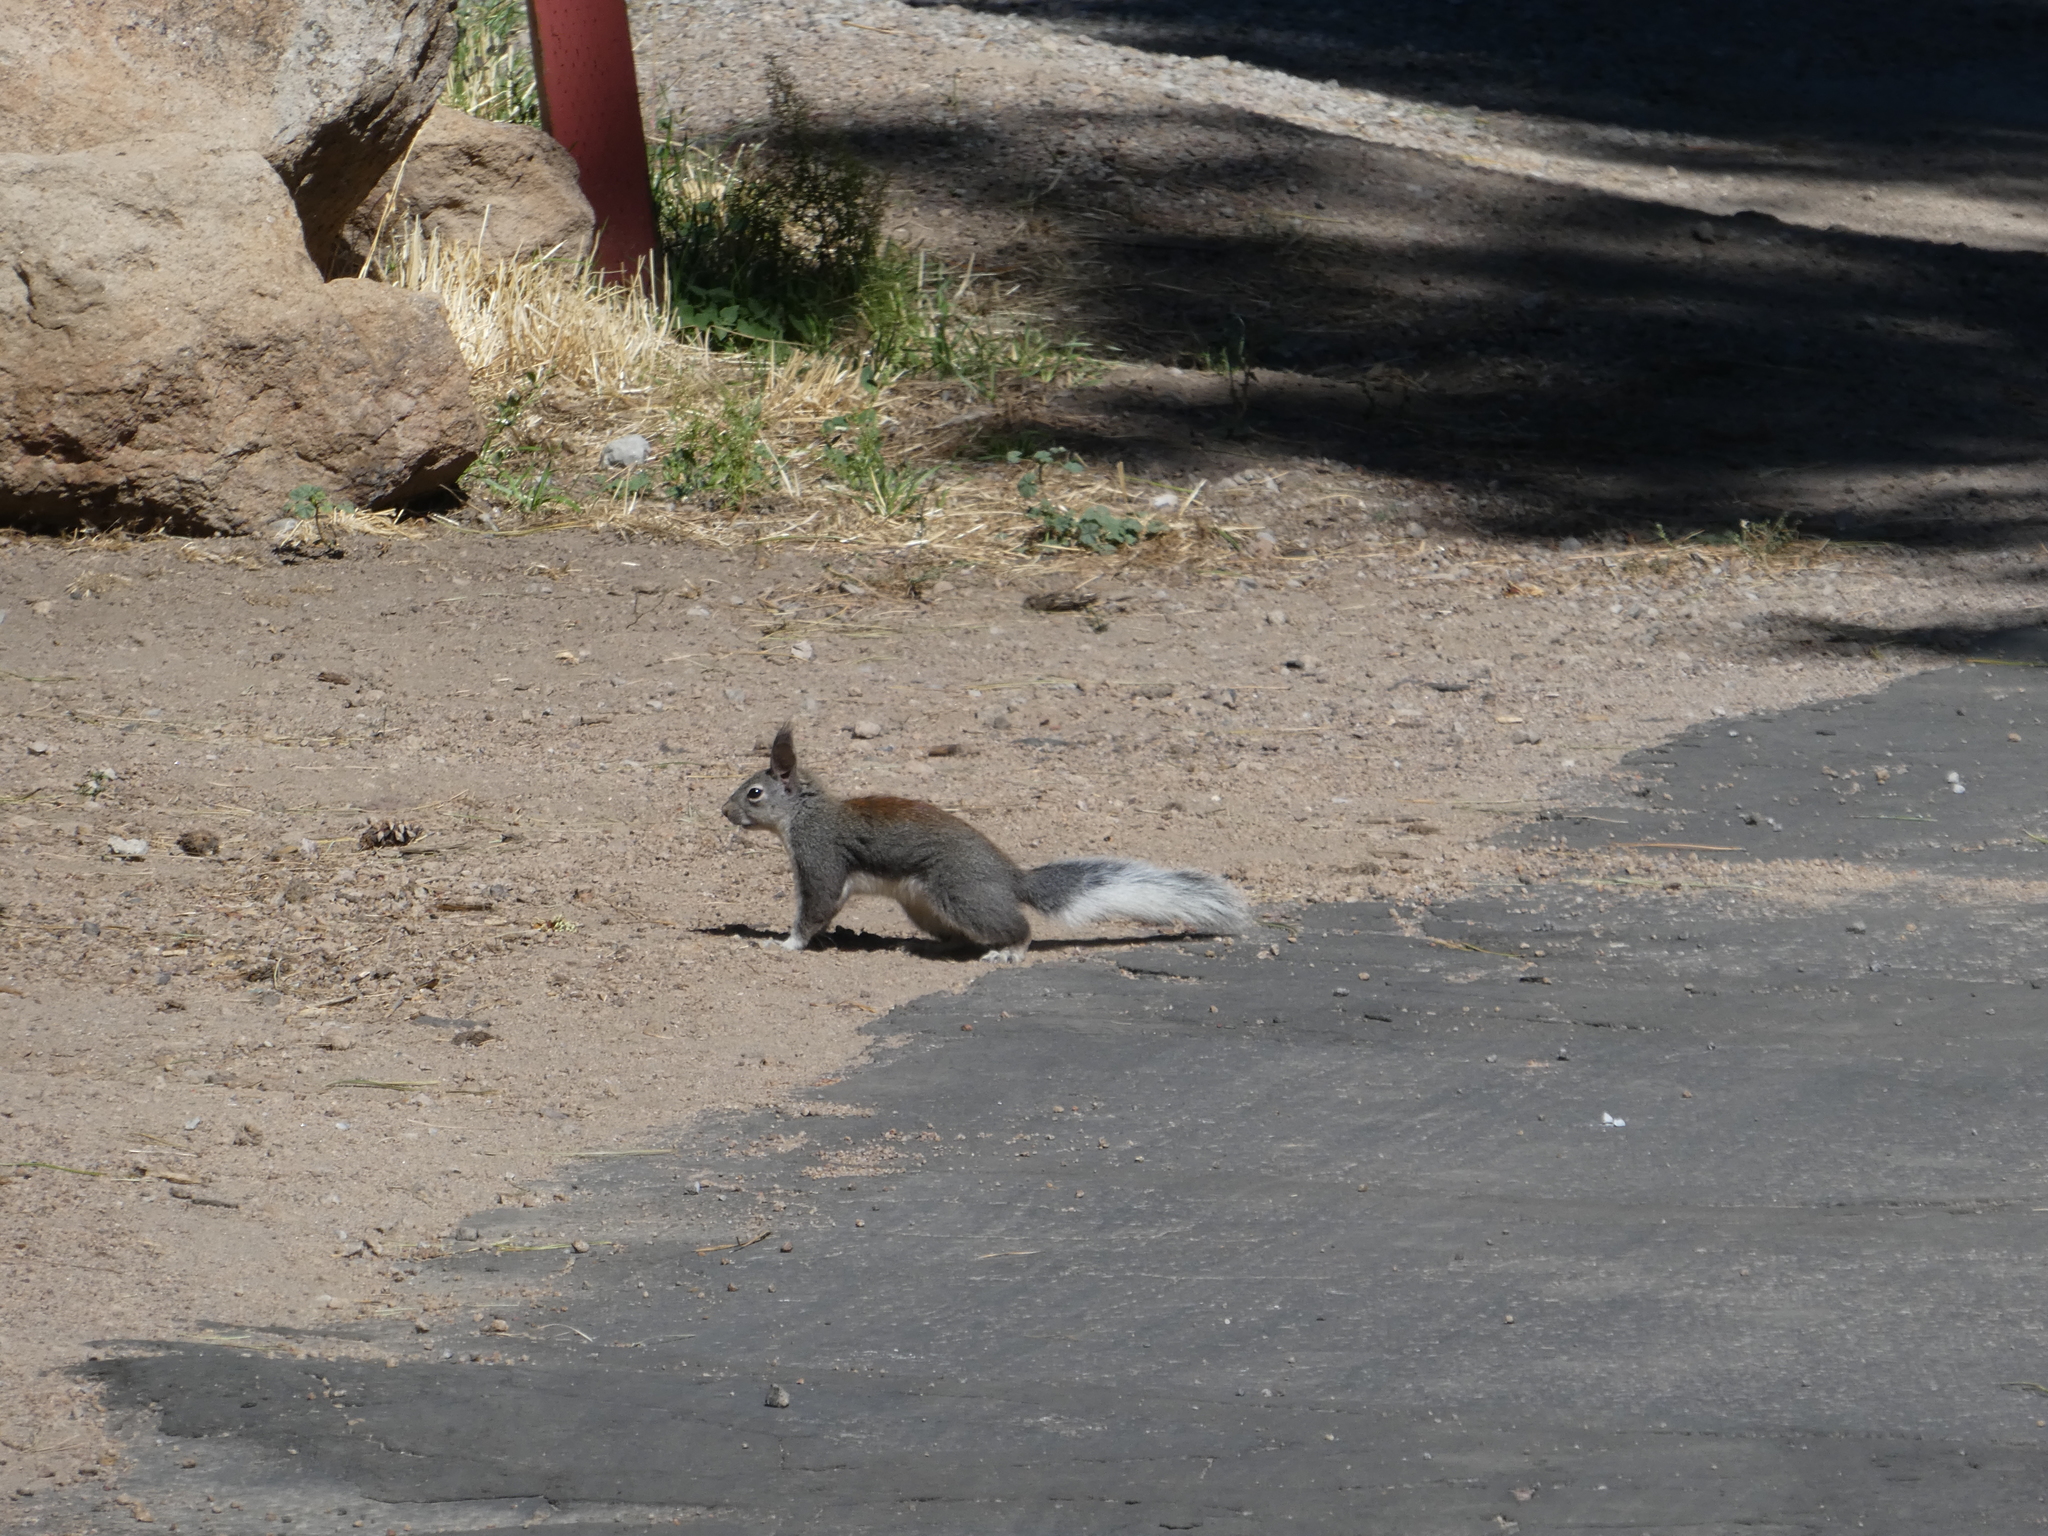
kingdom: Animalia
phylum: Chordata
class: Mammalia
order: Rodentia
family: Sciuridae
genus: Sciurus
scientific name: Sciurus aberti
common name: Abert's squirrel
